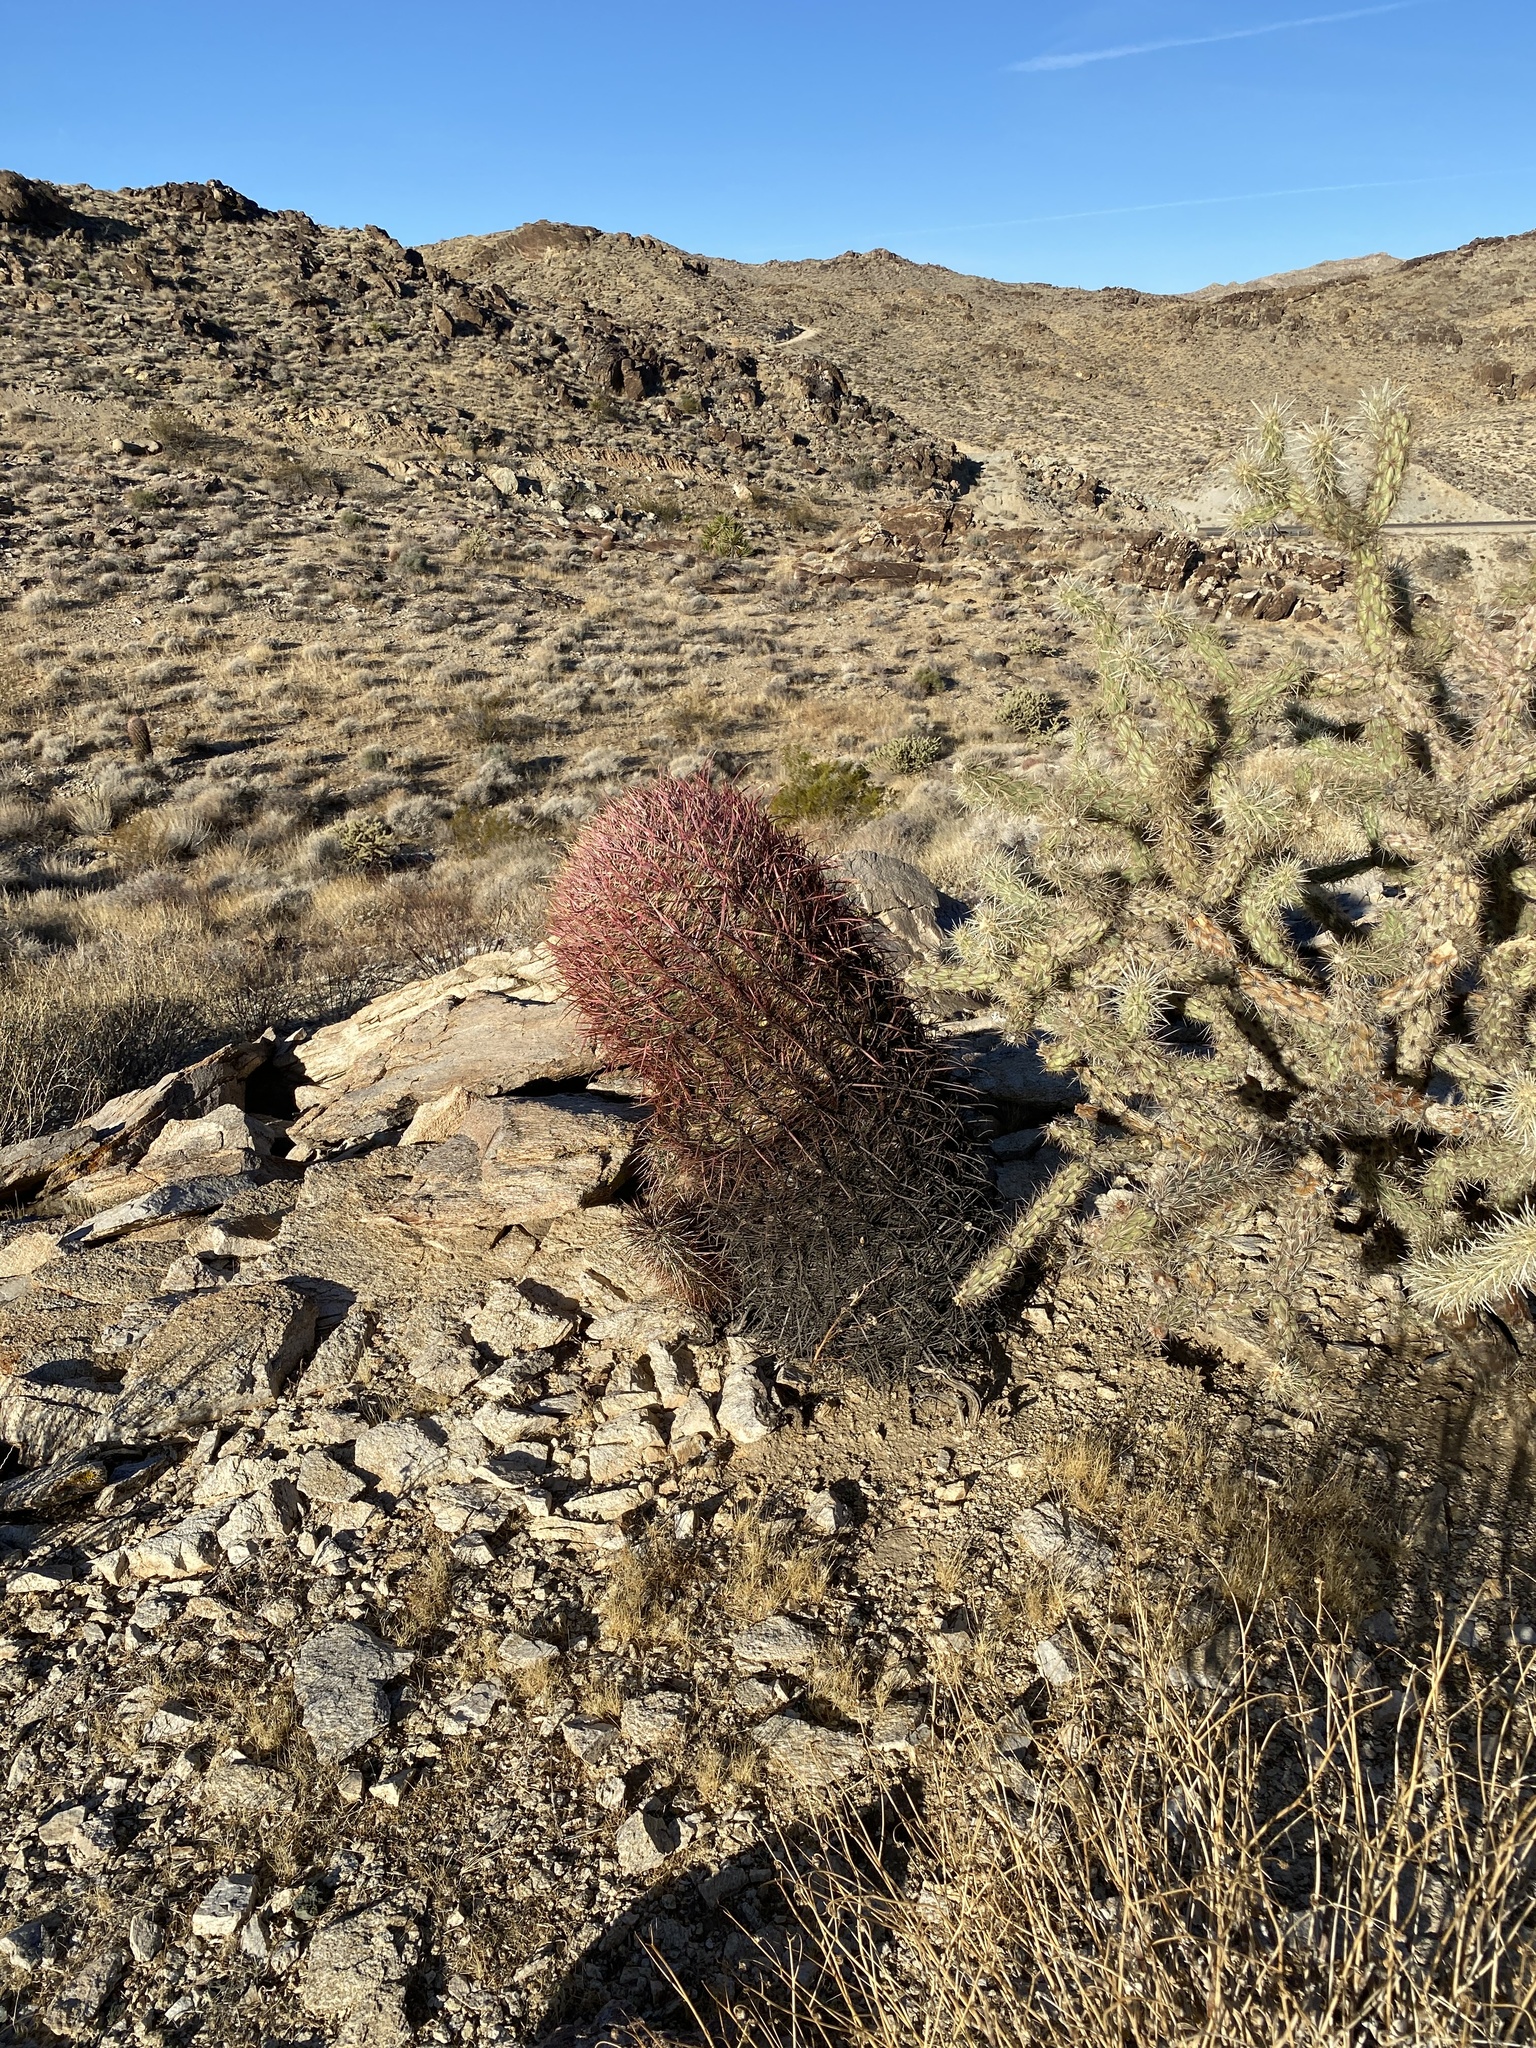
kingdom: Plantae
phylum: Tracheophyta
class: Magnoliopsida
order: Caryophyllales
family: Cactaceae
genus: Ferocactus
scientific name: Ferocactus cylindraceus
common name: California barrel cactus
